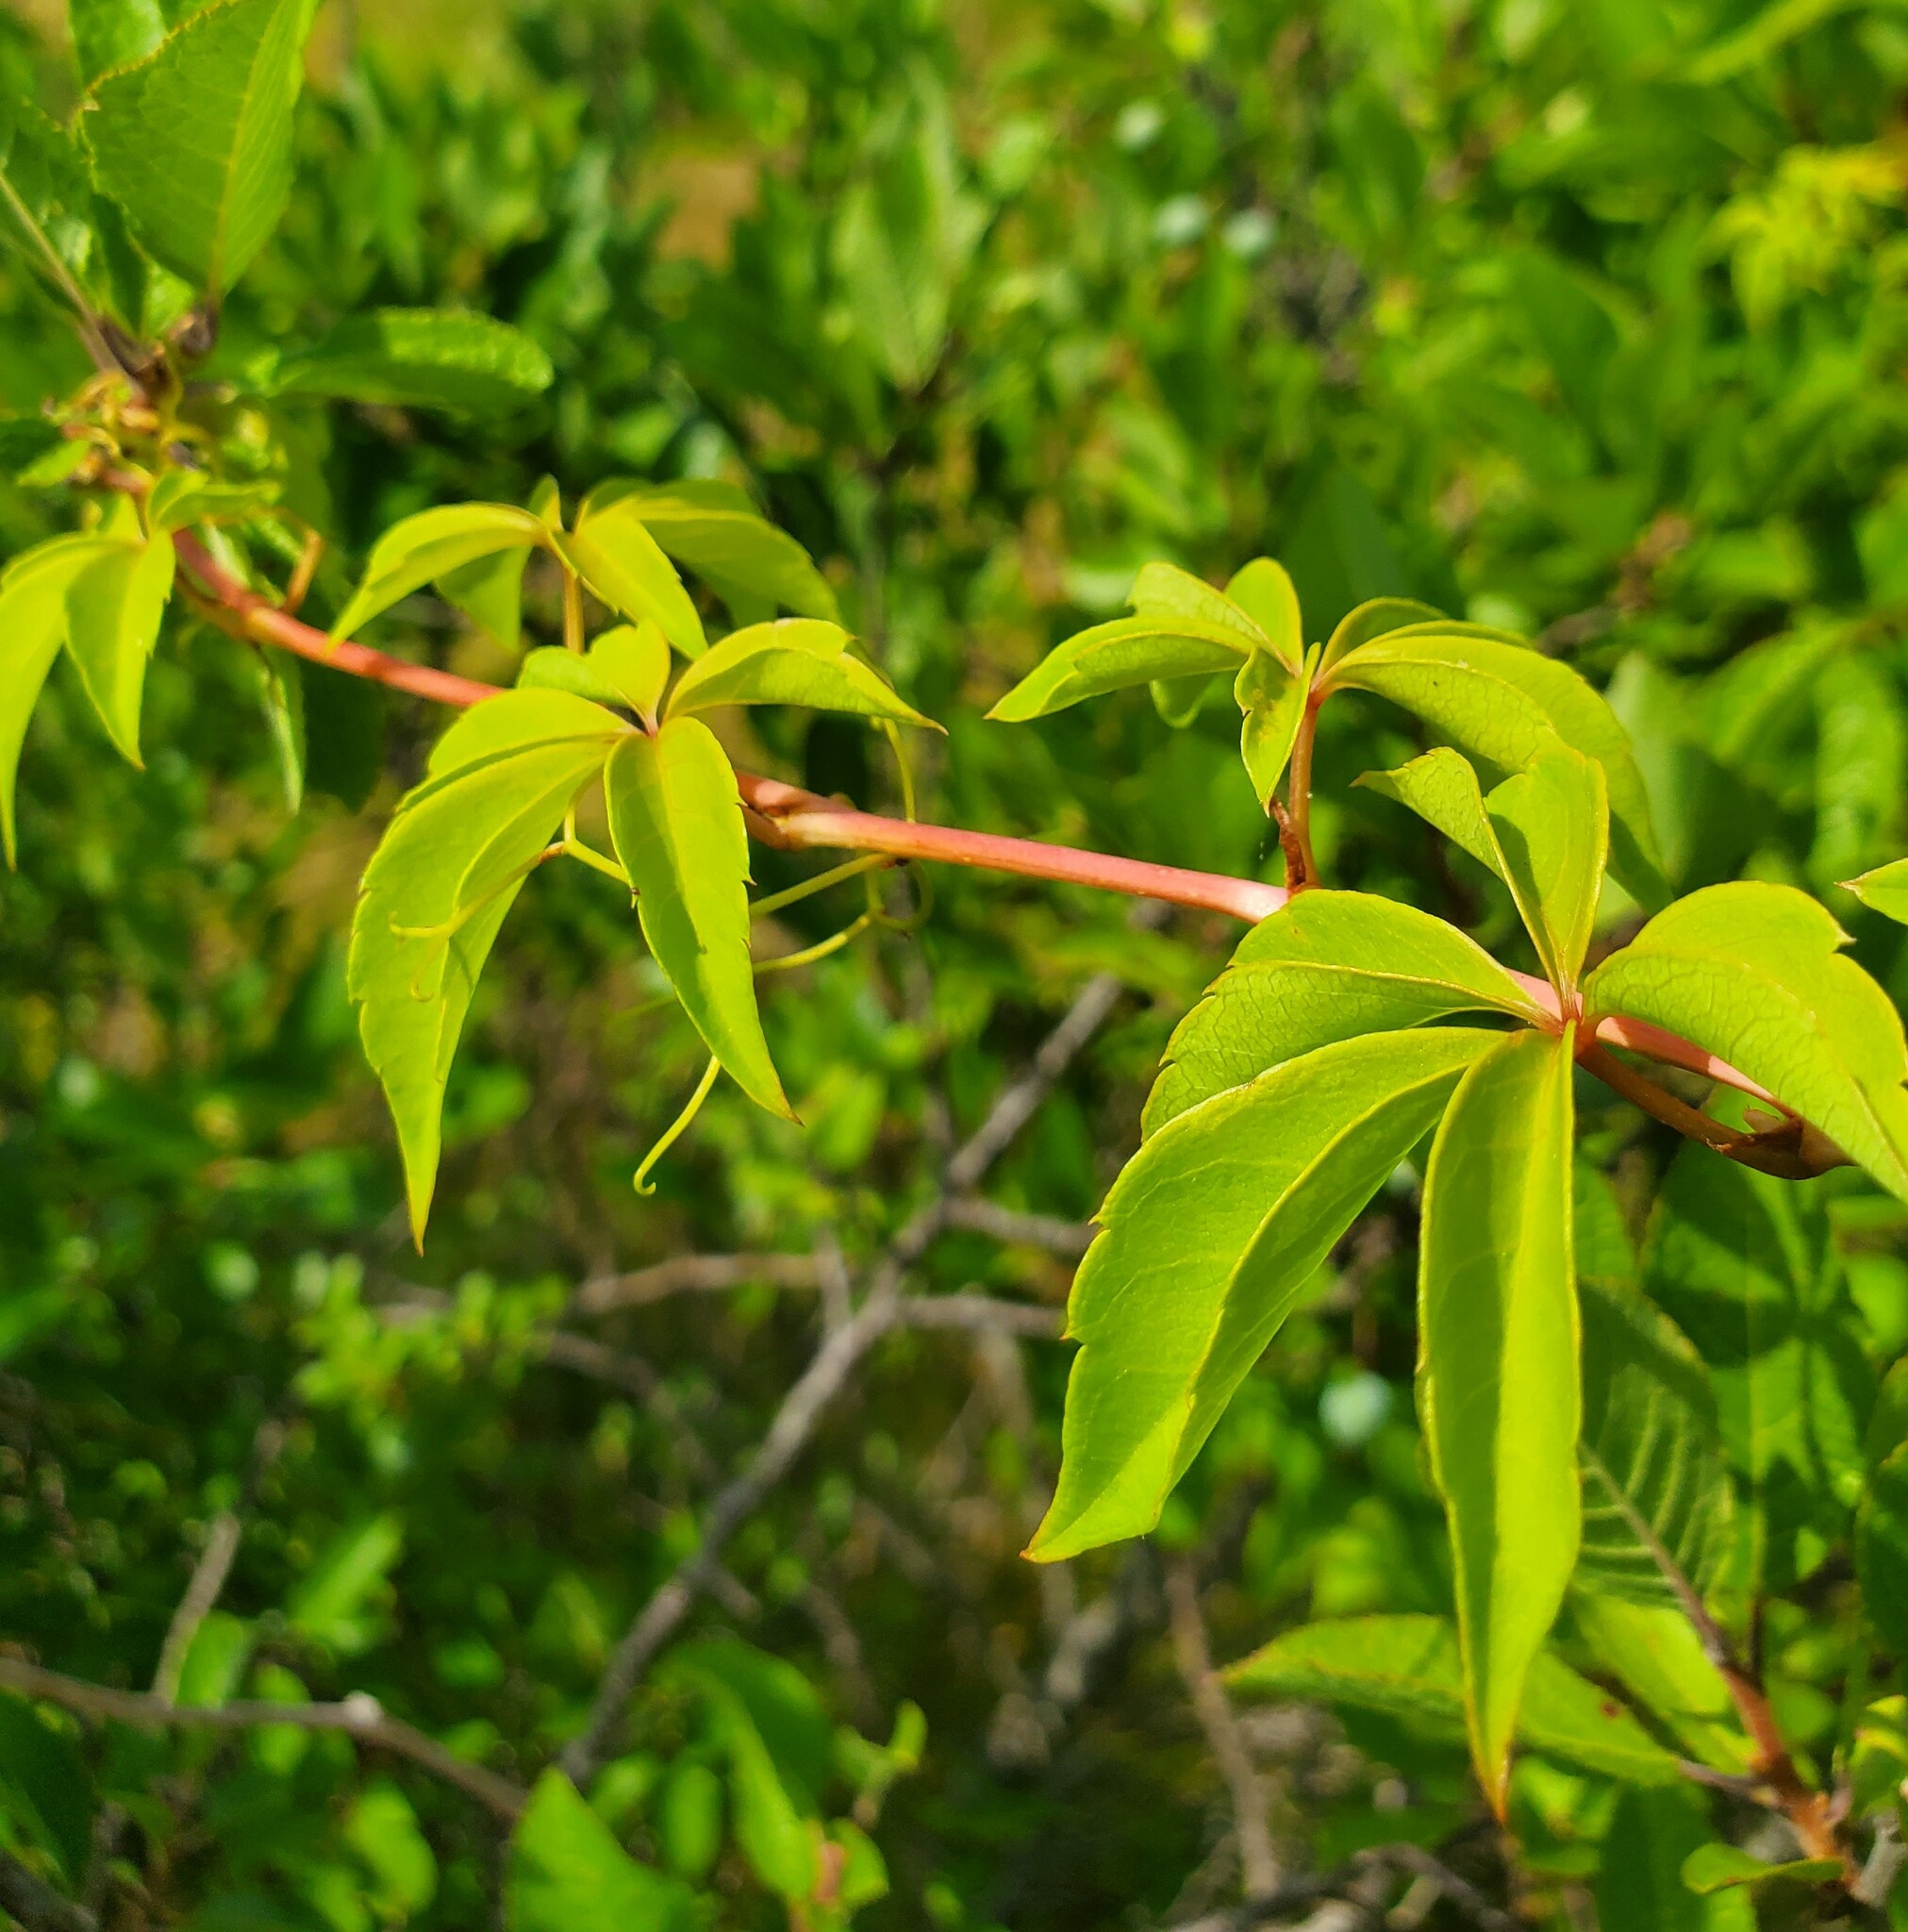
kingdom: Plantae
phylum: Tracheophyta
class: Magnoliopsida
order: Vitales
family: Vitaceae
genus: Parthenocissus
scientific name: Parthenocissus quinquefolia
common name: Virginia-creeper
